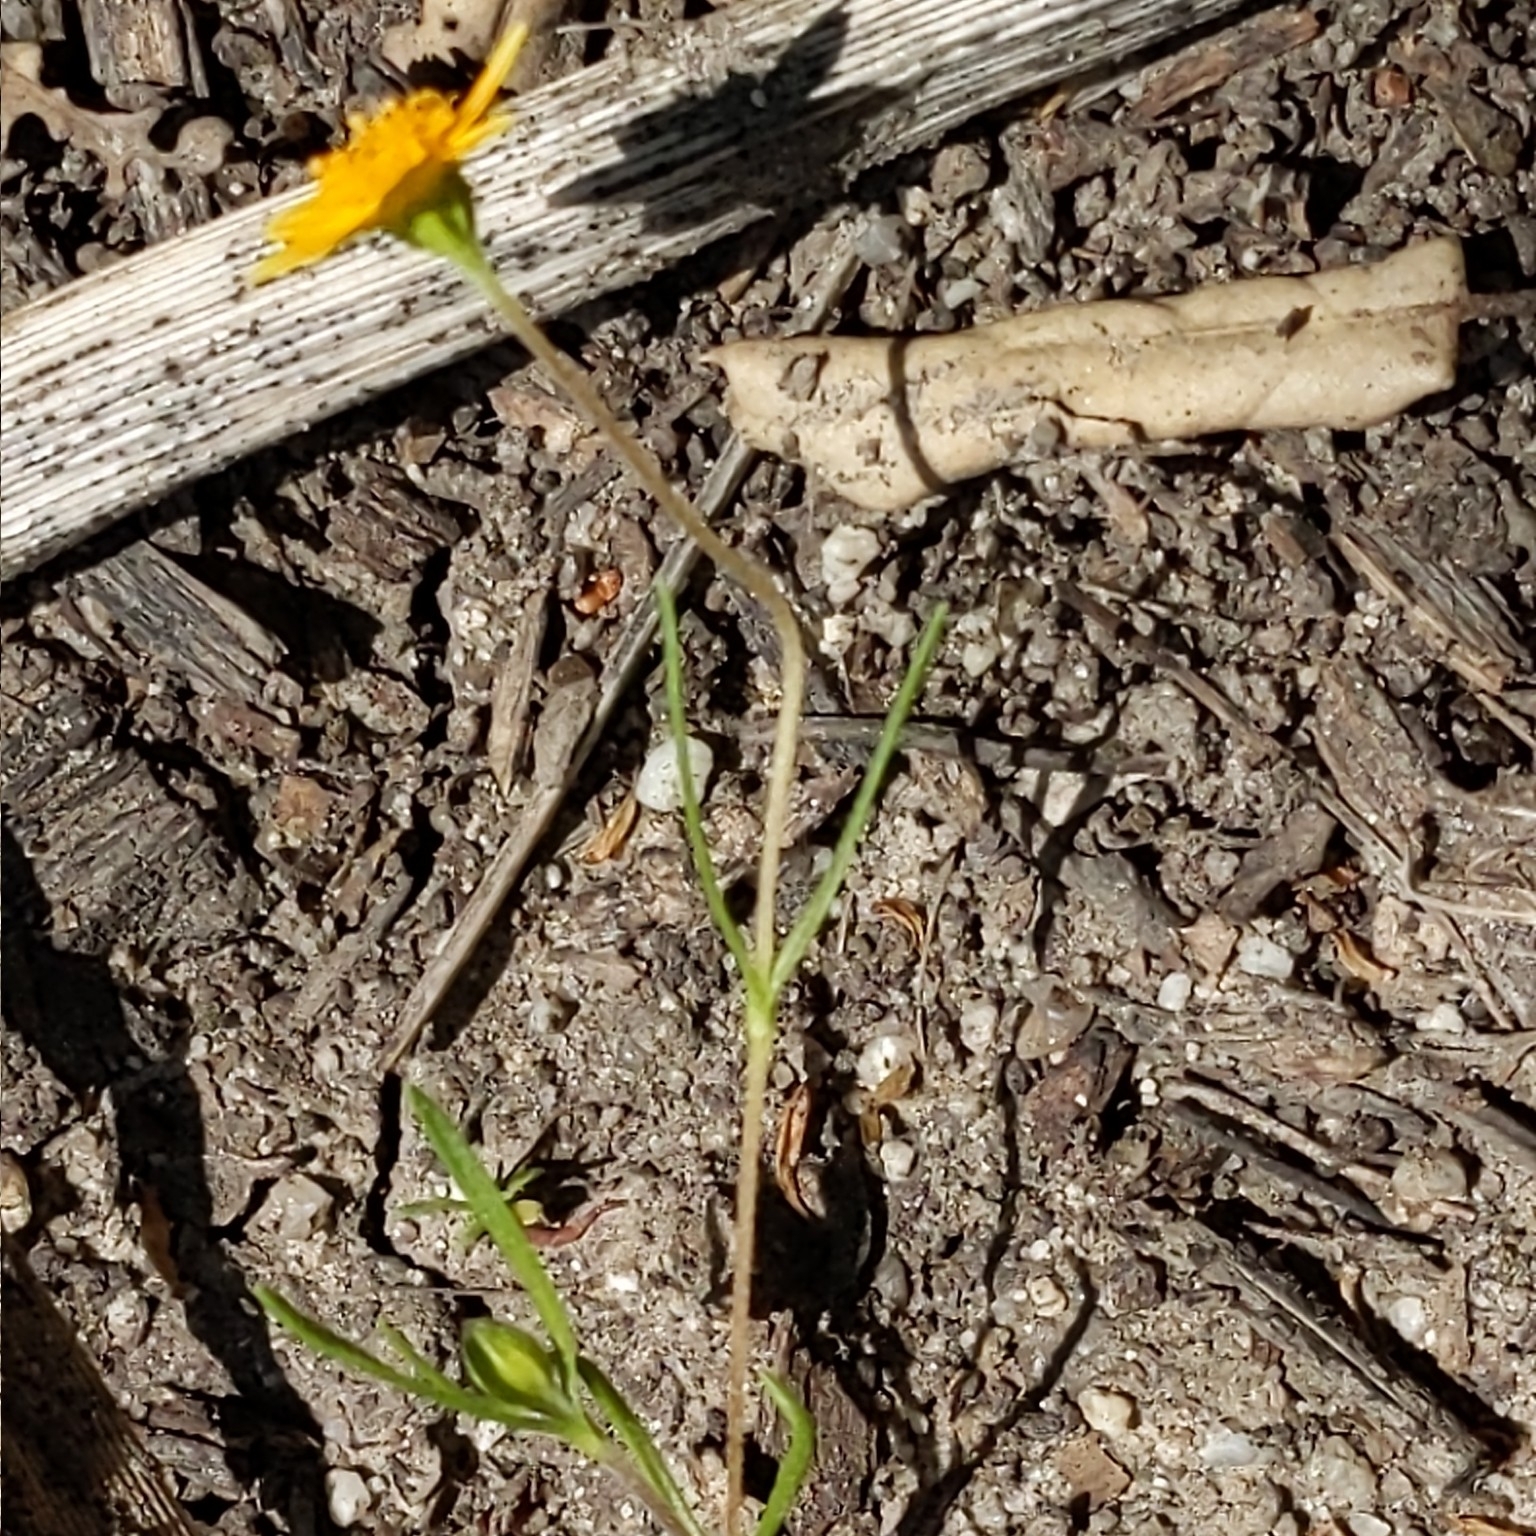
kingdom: Plantae
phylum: Tracheophyta
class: Magnoliopsida
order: Asterales
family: Asteraceae
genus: Lasthenia
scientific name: Lasthenia gracilis
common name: Common goldfields
